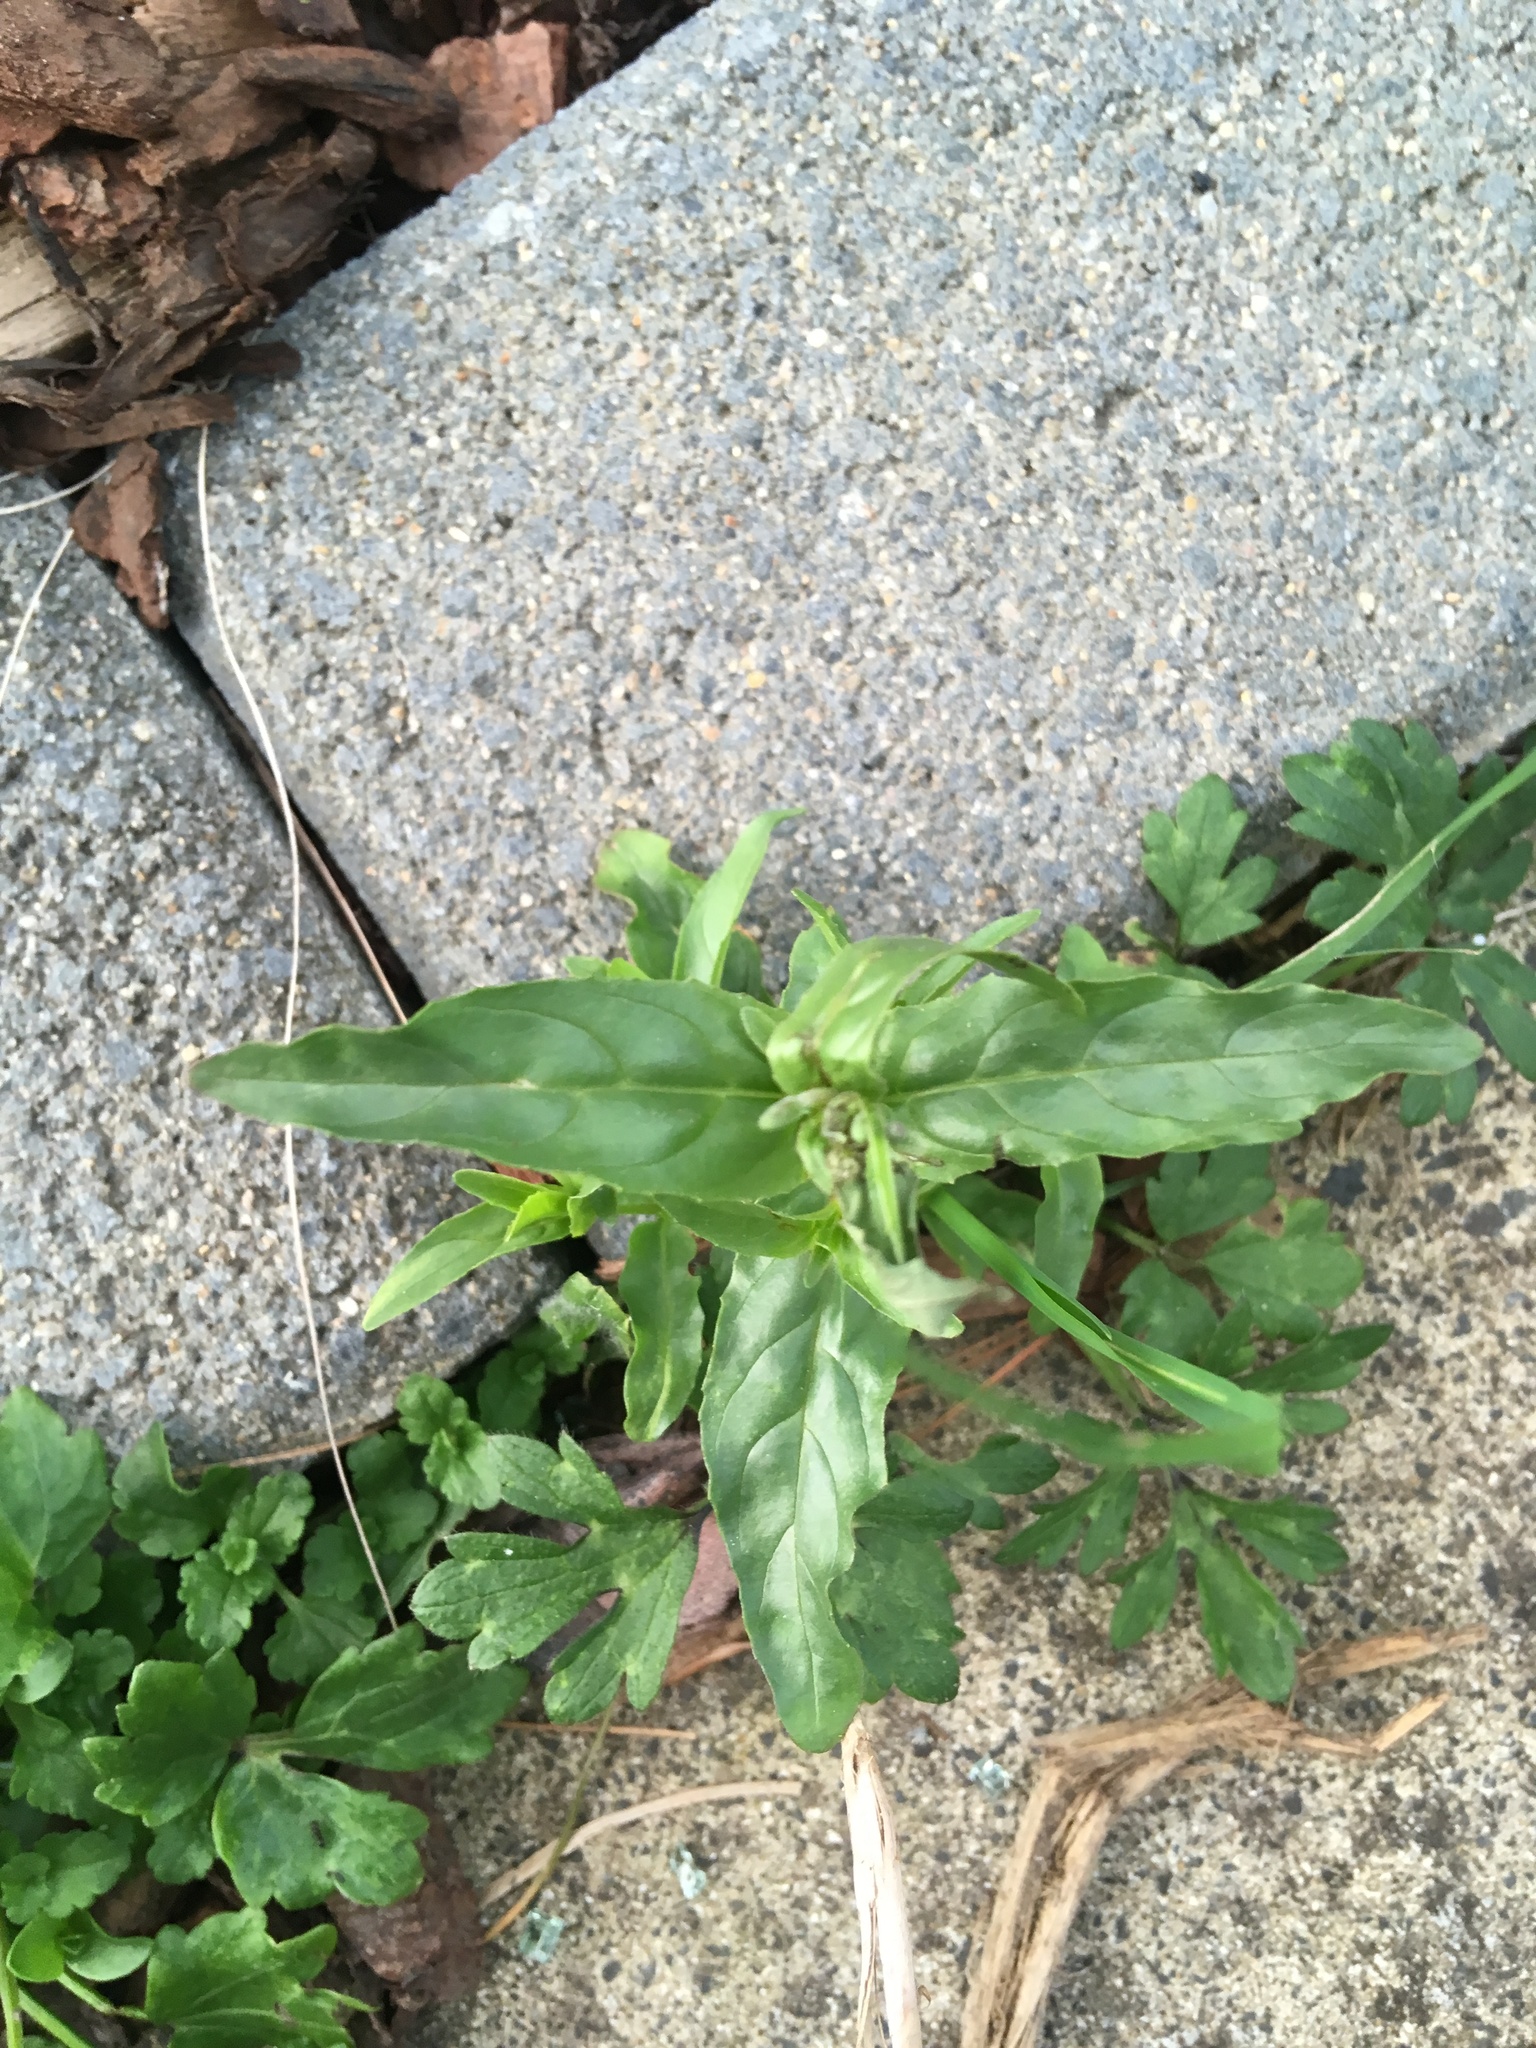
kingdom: Plantae
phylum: Tracheophyta
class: Magnoliopsida
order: Myrtales
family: Onagraceae
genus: Epilobium
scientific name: Epilobium ciliatum
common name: American willowherb
